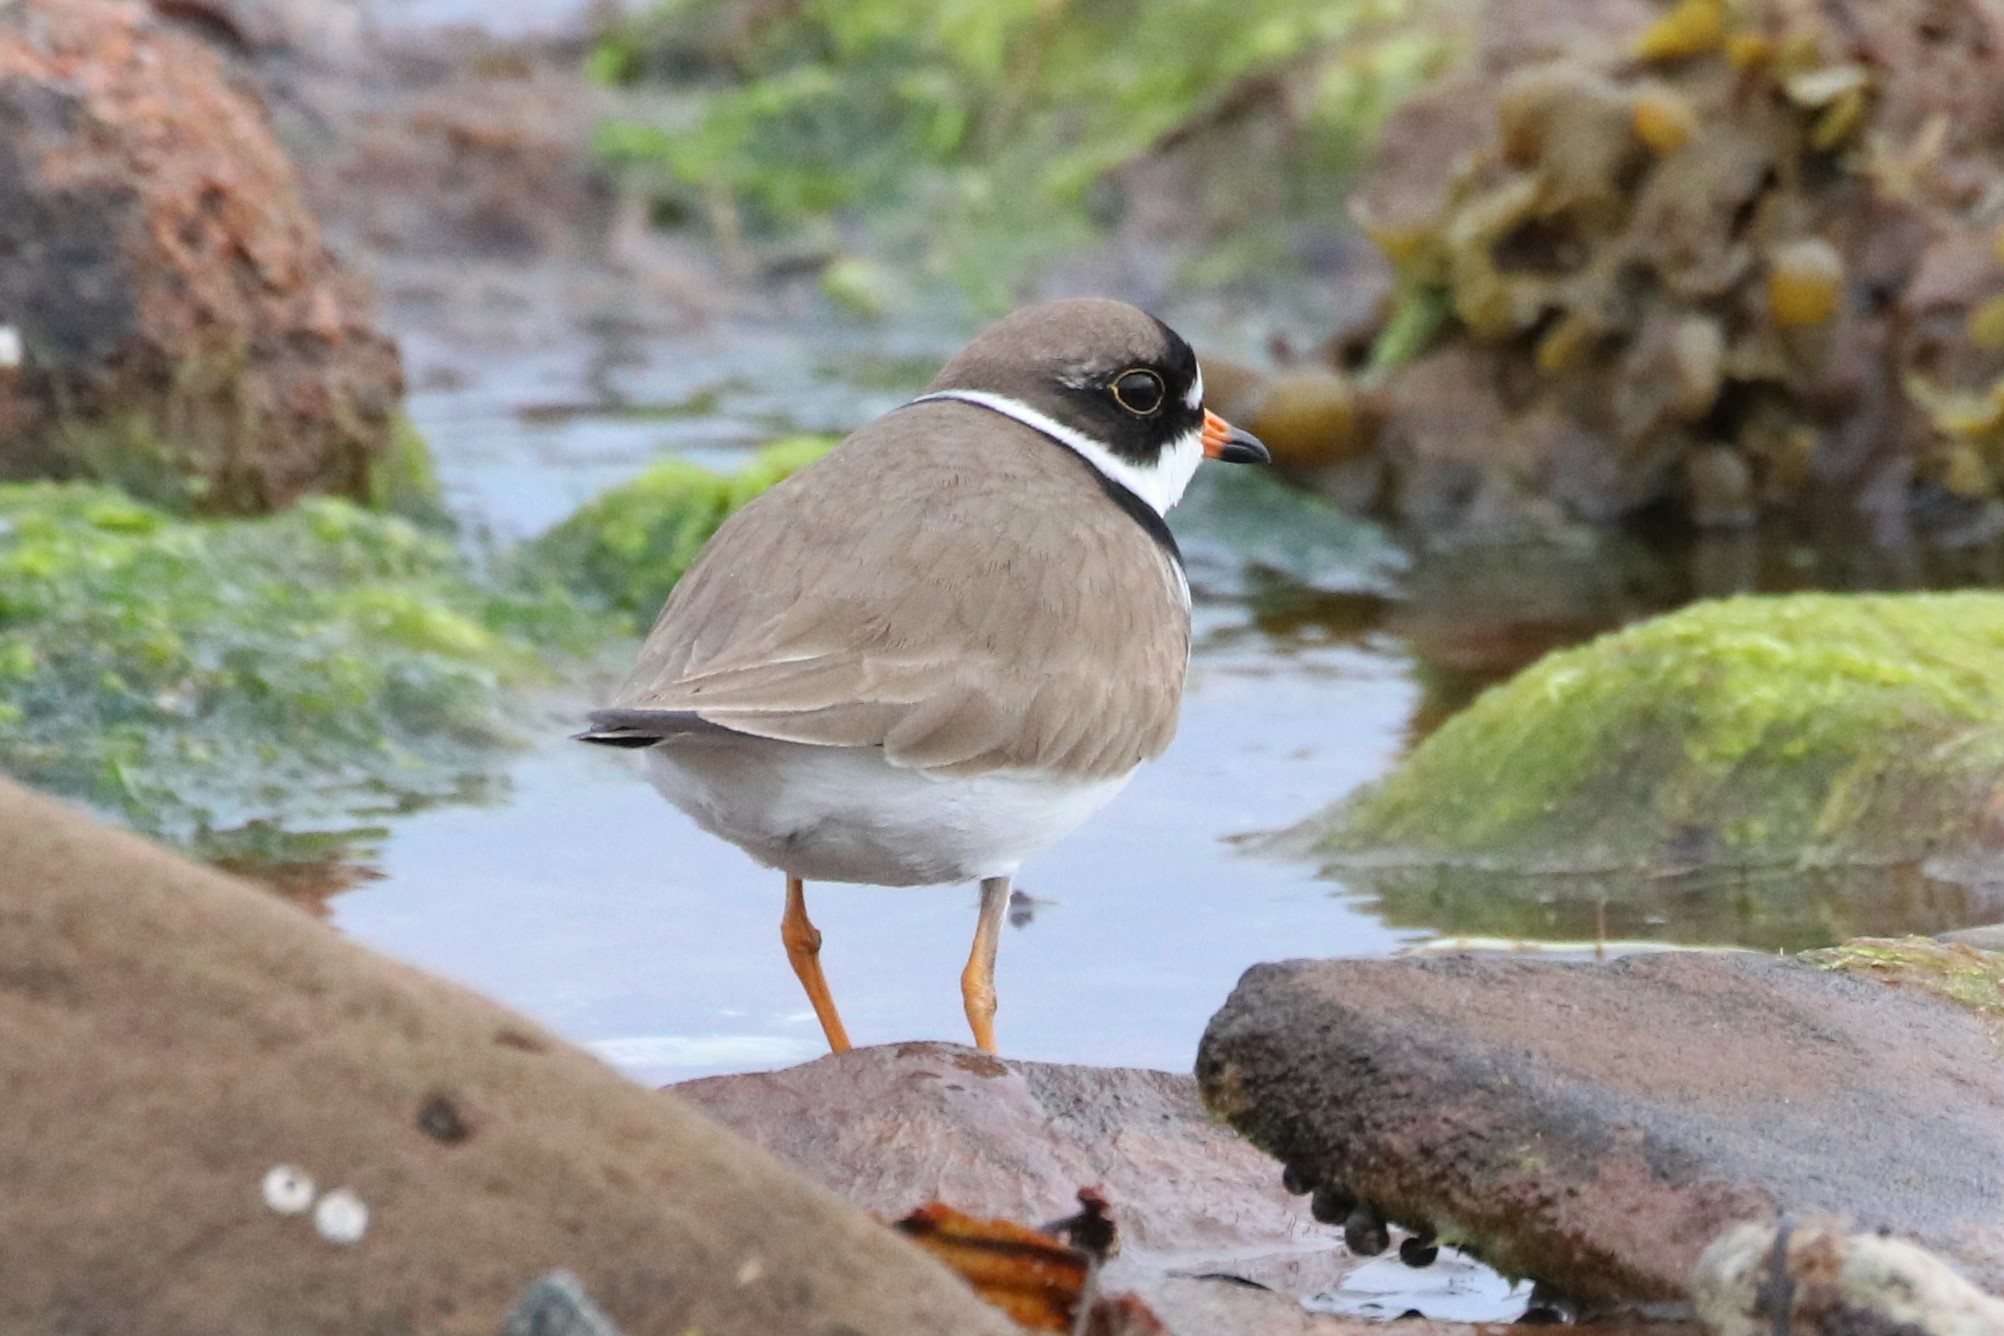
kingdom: Animalia
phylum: Chordata
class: Aves
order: Charadriiformes
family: Charadriidae
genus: Charadrius
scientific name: Charadrius semipalmatus
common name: Semipalmated plover
